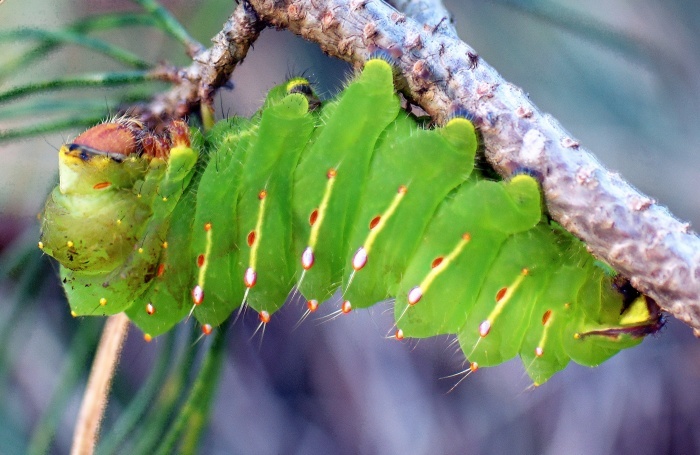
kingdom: Animalia
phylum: Arthropoda
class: Insecta
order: Lepidoptera
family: Saturniidae
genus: Antheraea
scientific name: Antheraea polyphemus
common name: Polyphemus moth
